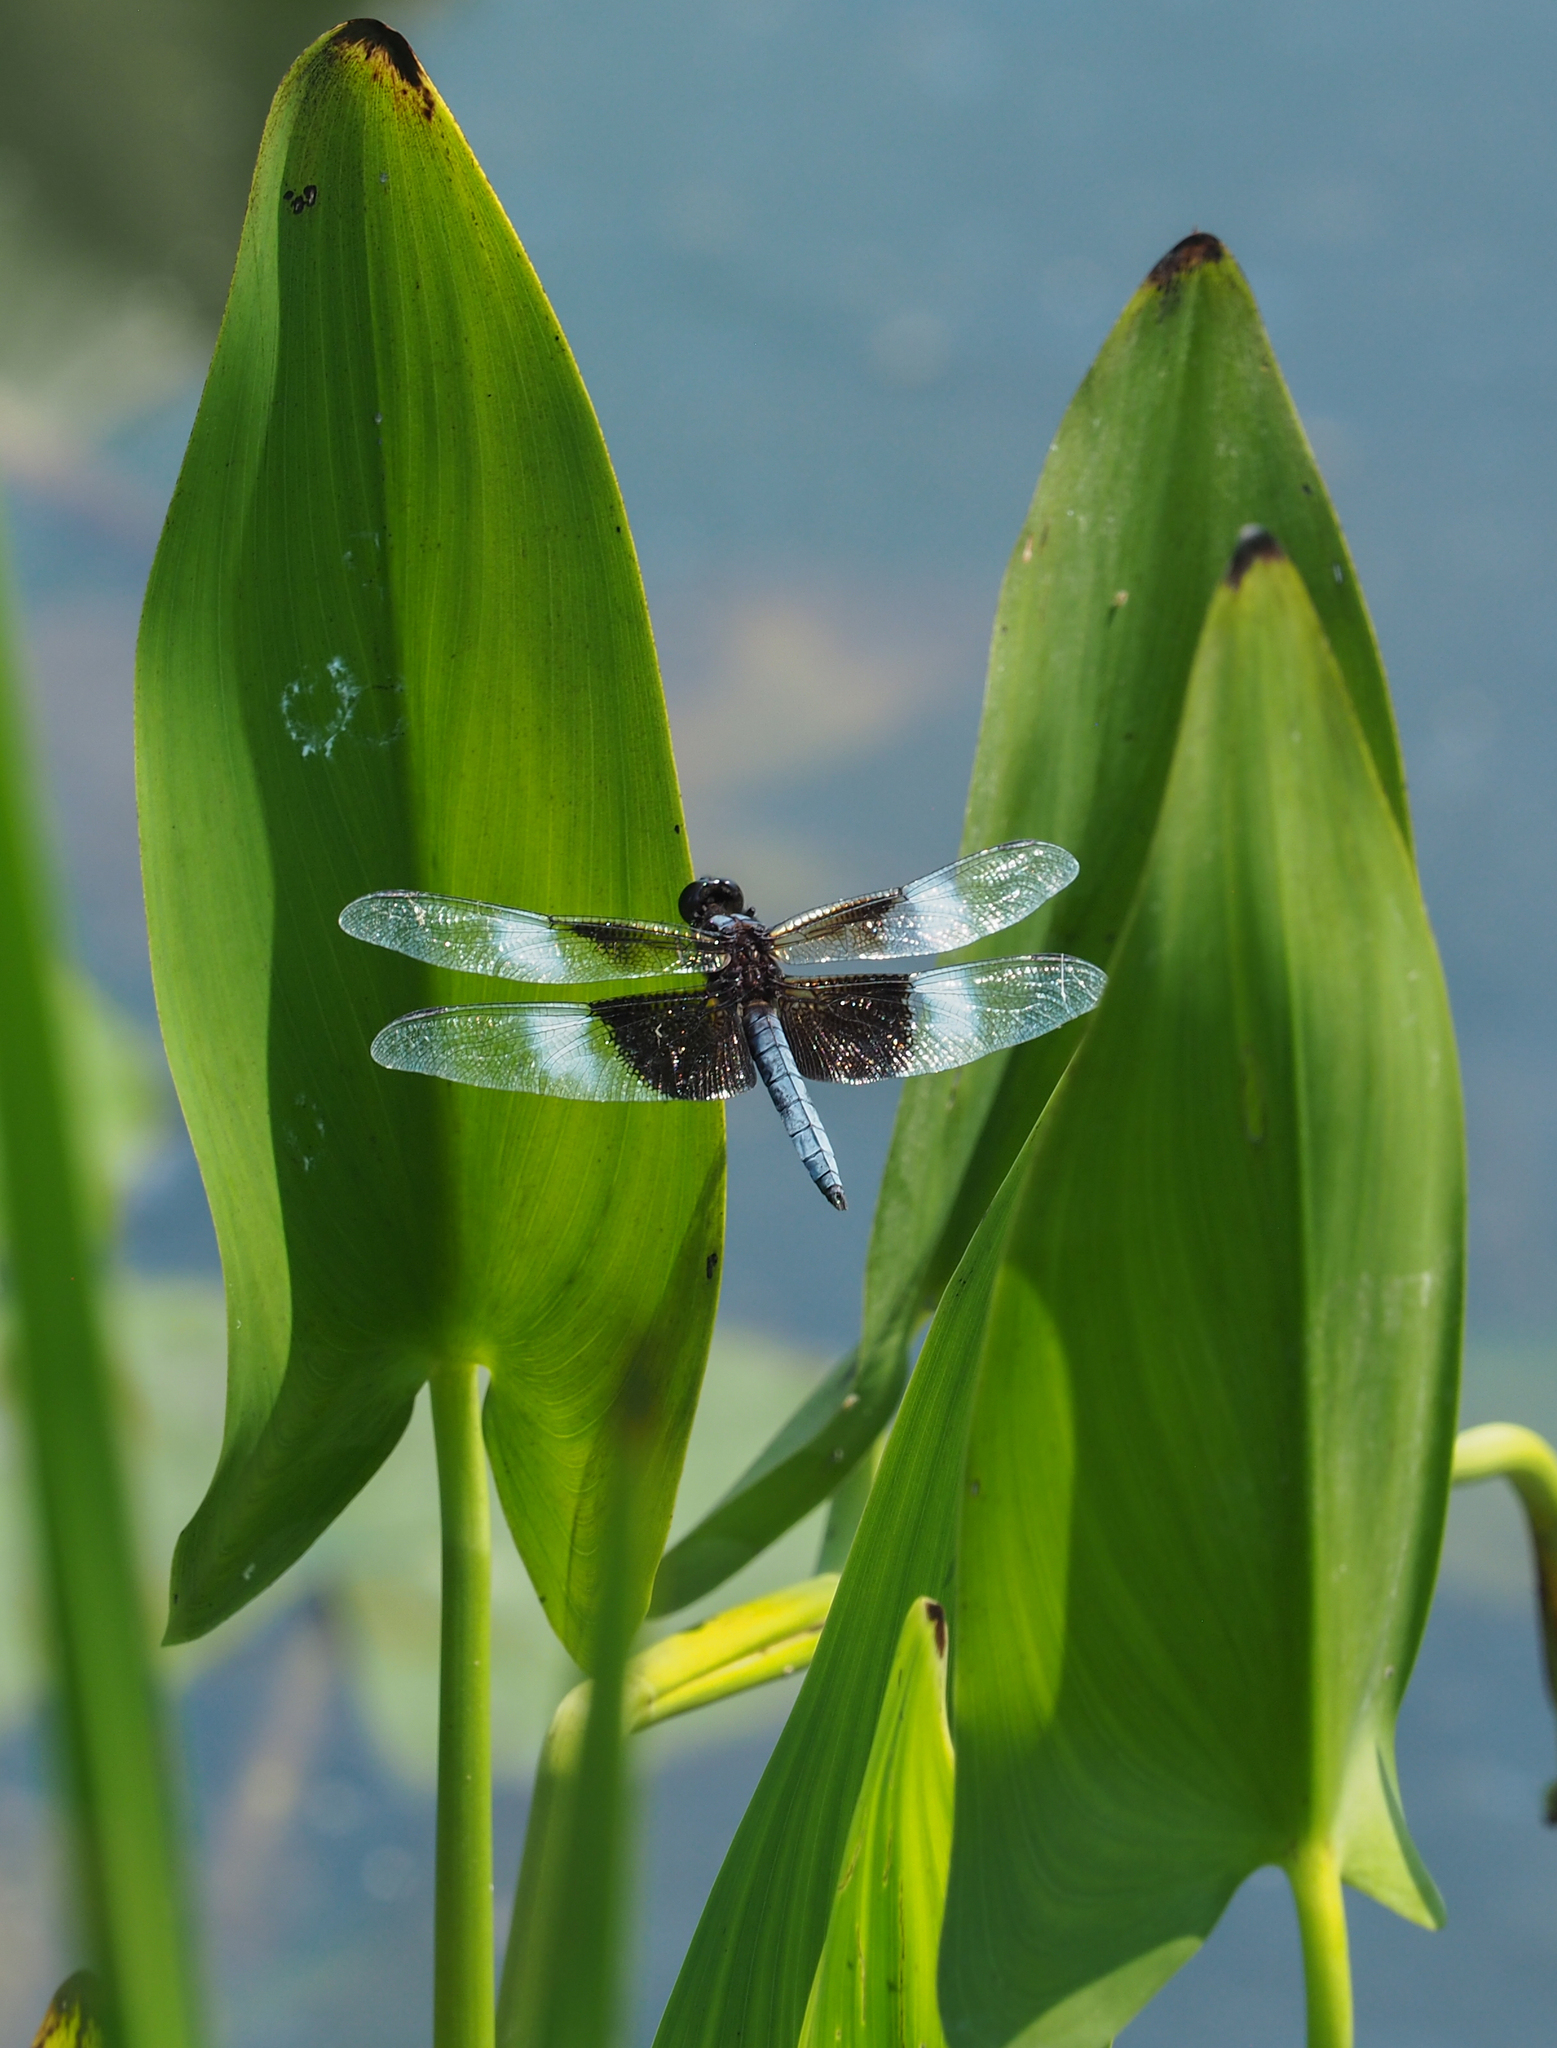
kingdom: Animalia
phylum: Arthropoda
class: Insecta
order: Odonata
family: Libellulidae
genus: Libellula
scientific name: Libellula luctuosa
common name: Widow skimmer
